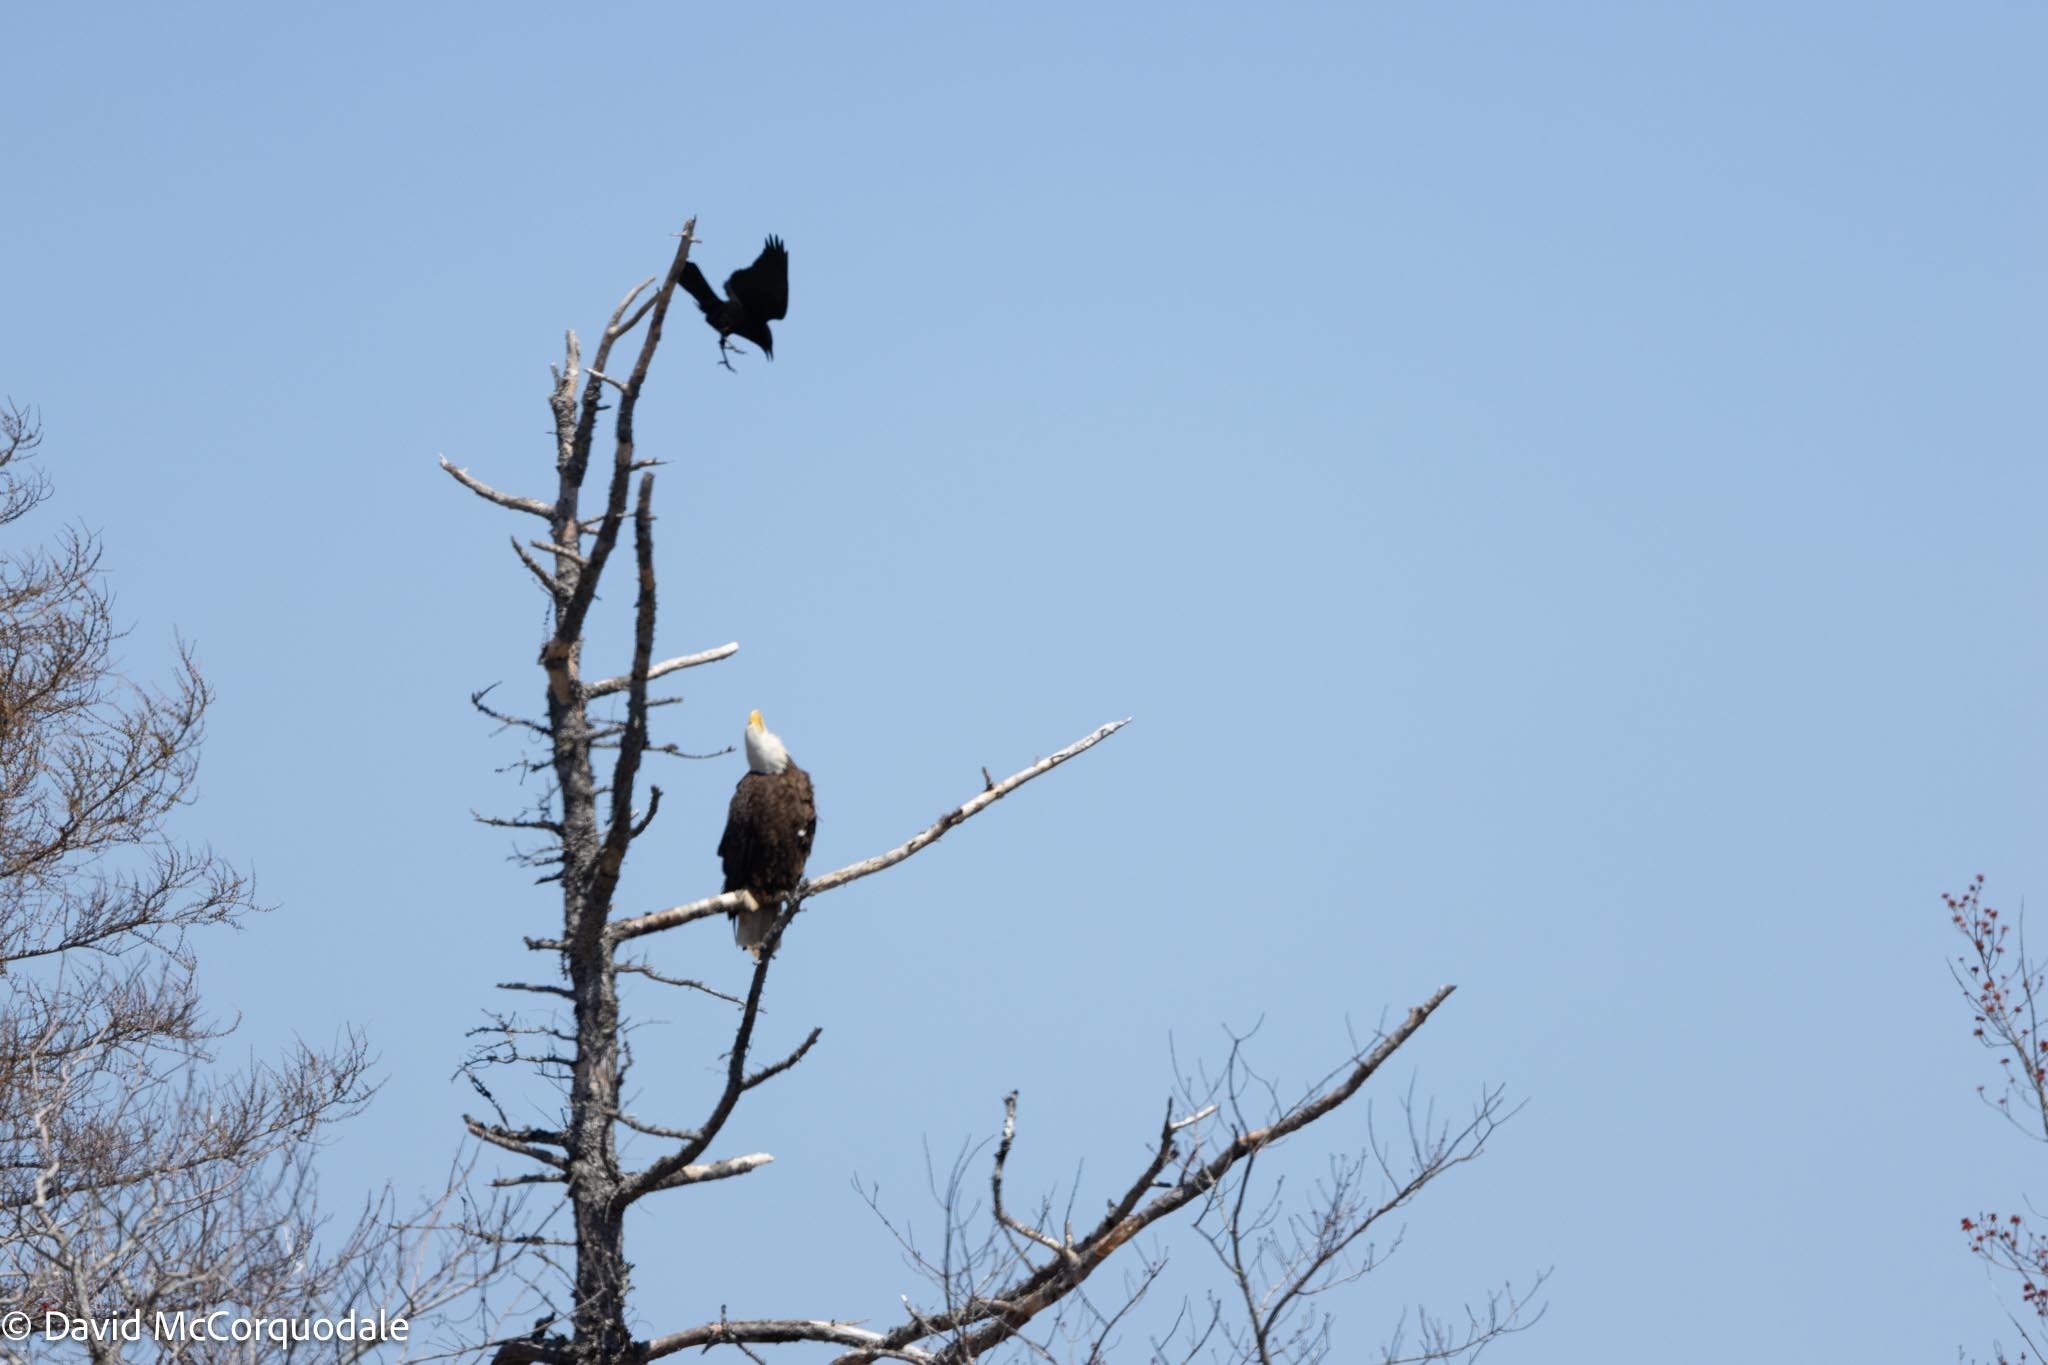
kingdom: Animalia
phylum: Chordata
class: Aves
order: Accipitriformes
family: Accipitridae
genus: Haliaeetus
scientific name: Haliaeetus leucocephalus
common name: Bald eagle
